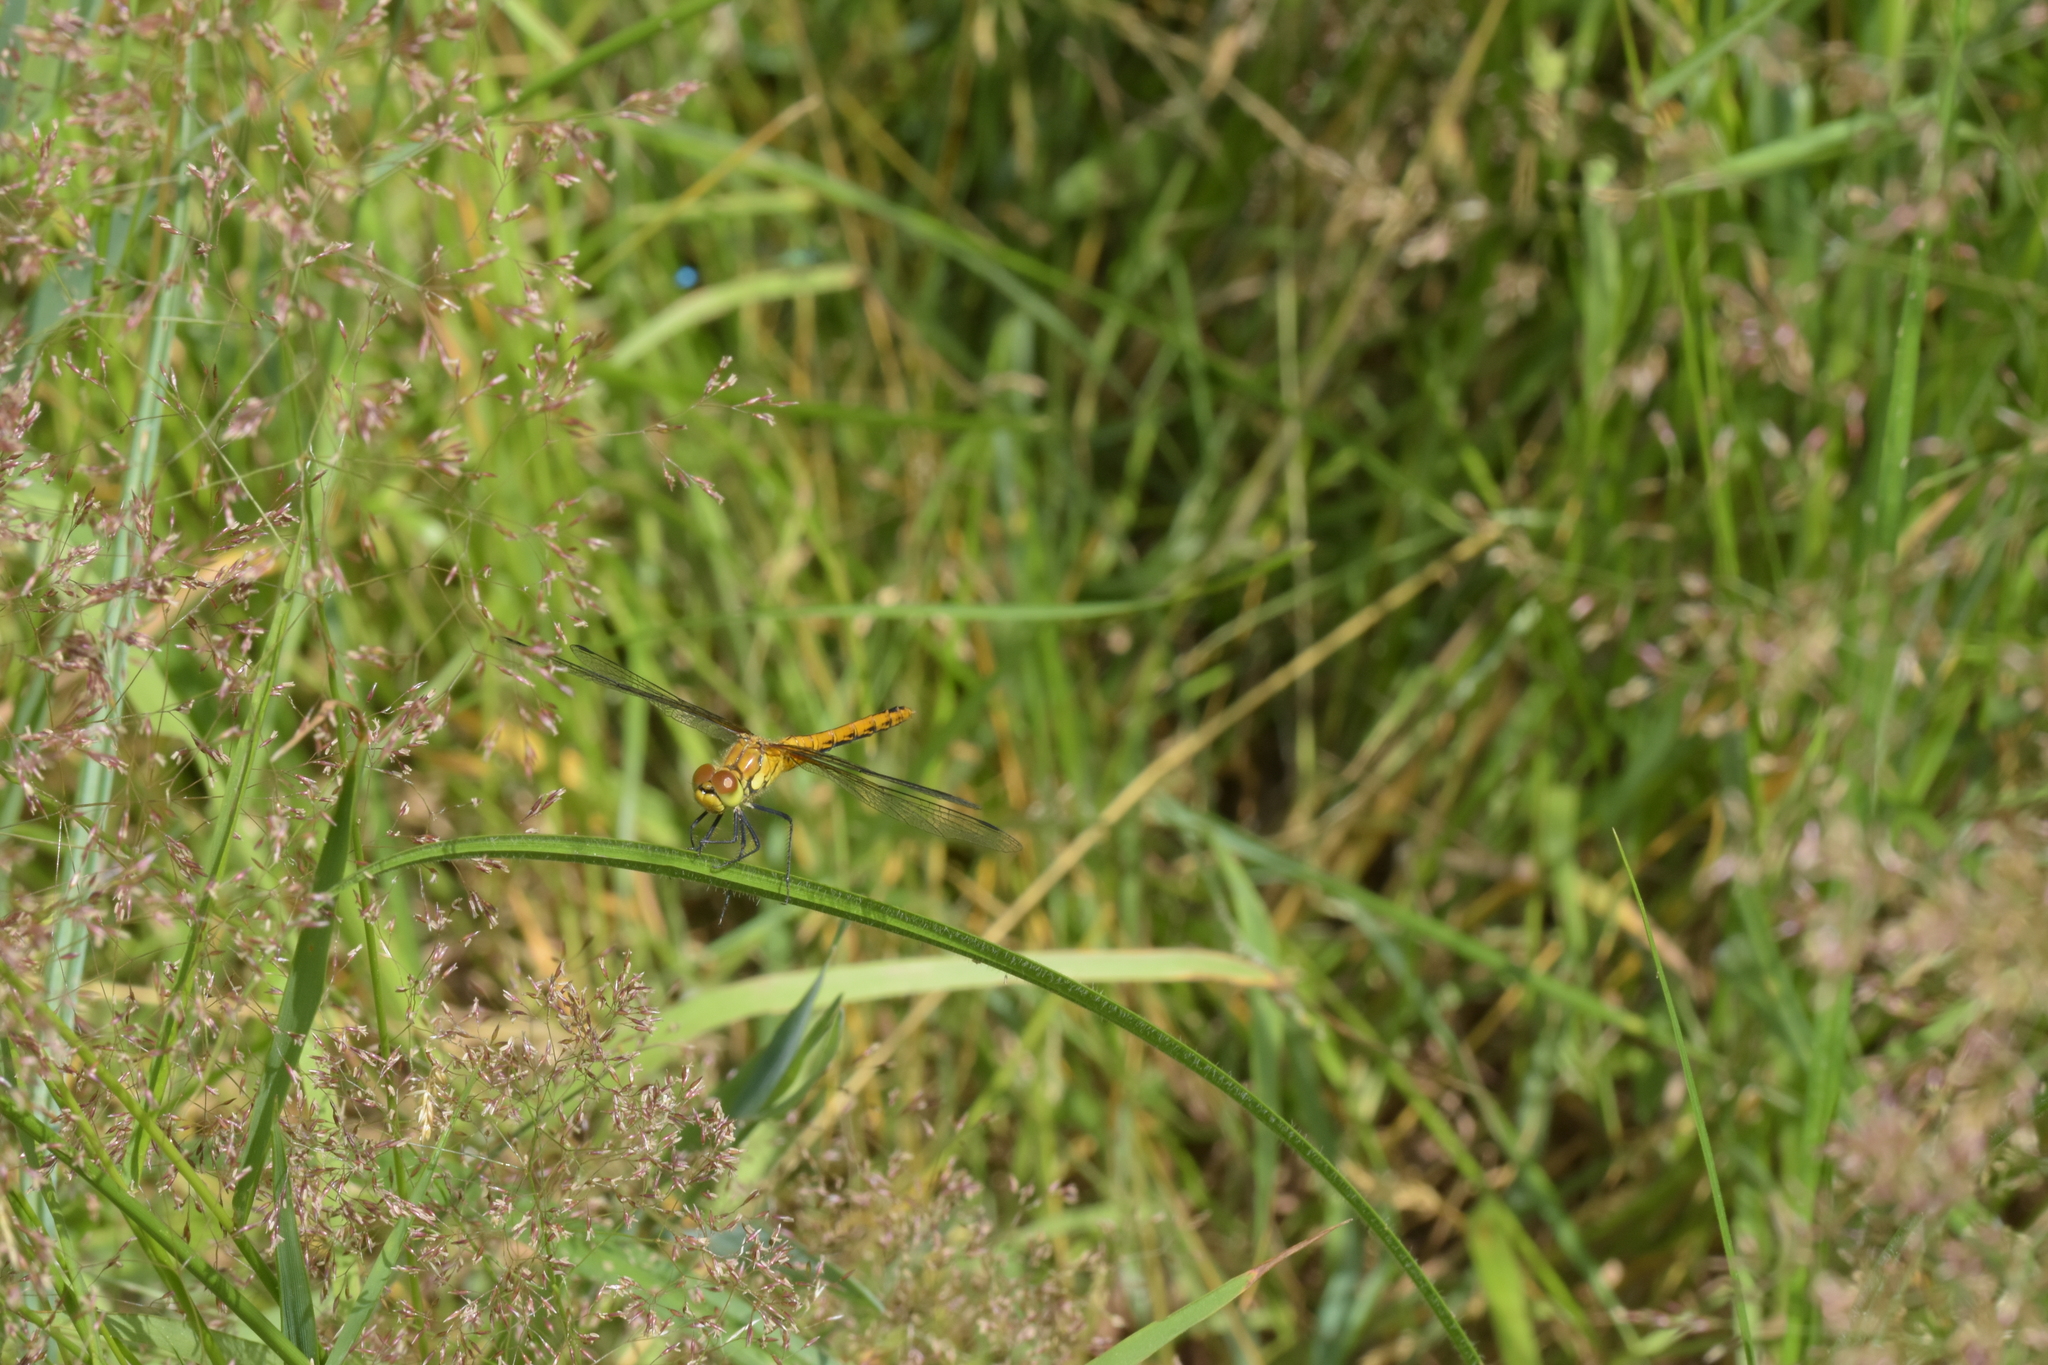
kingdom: Animalia
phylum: Arthropoda
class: Insecta
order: Odonata
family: Libellulidae
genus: Sympetrum
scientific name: Sympetrum sanguineum
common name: Ruddy darter
